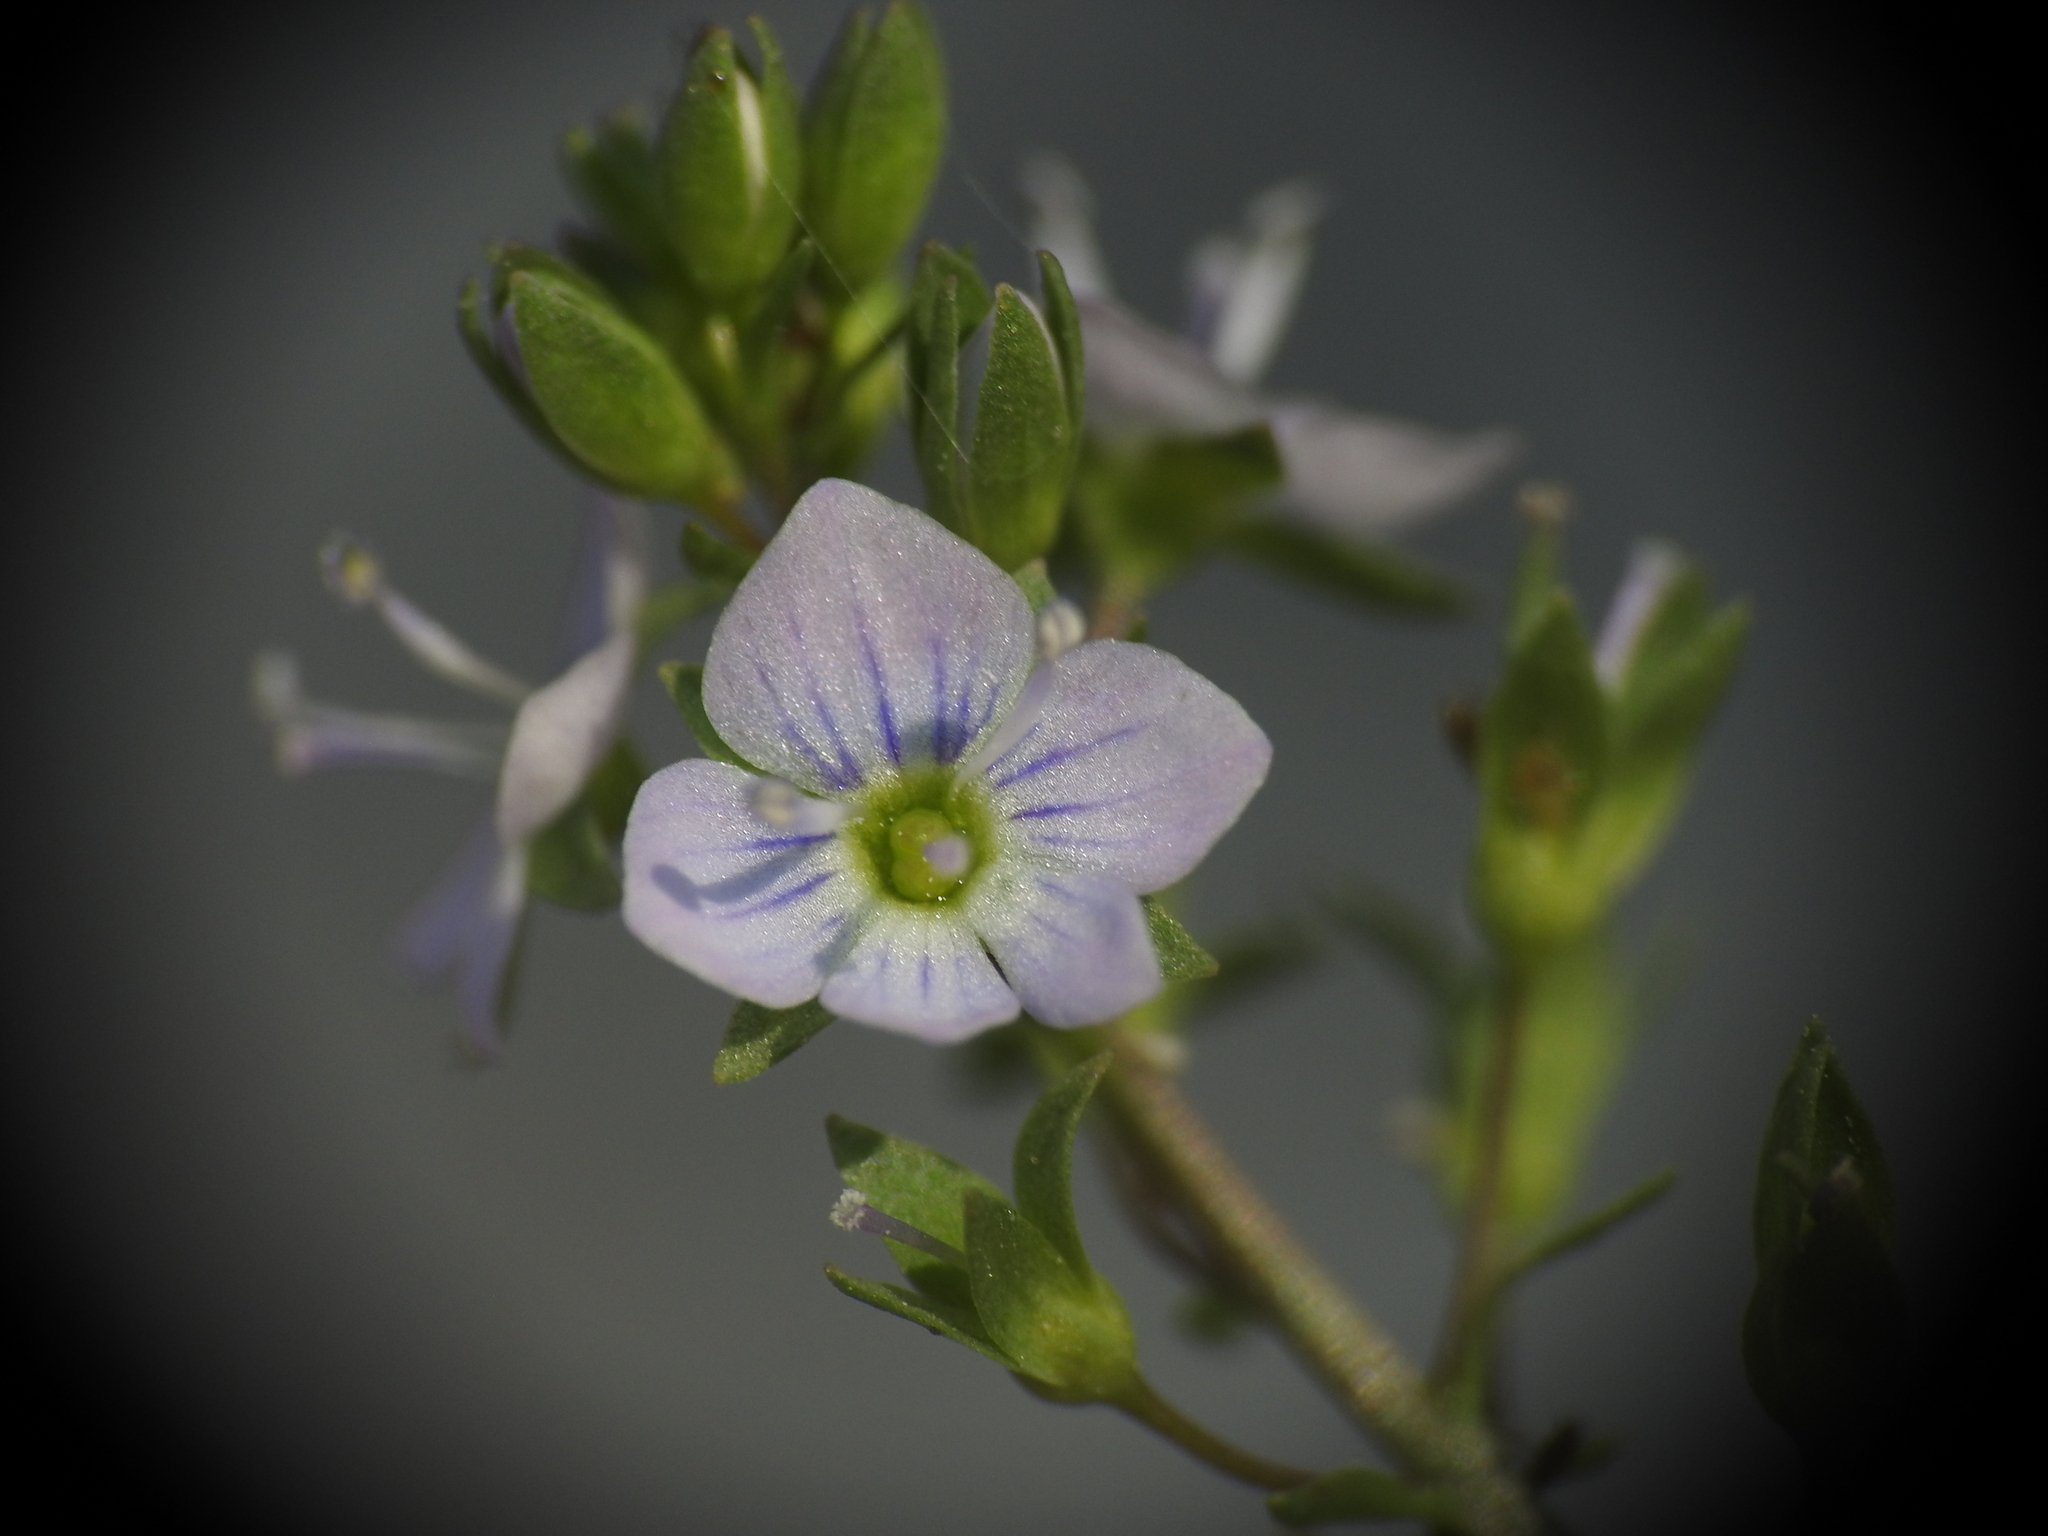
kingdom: Plantae
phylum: Tracheophyta
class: Magnoliopsida
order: Lamiales
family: Plantaginaceae
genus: Veronica
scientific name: Veronica anagalloides
